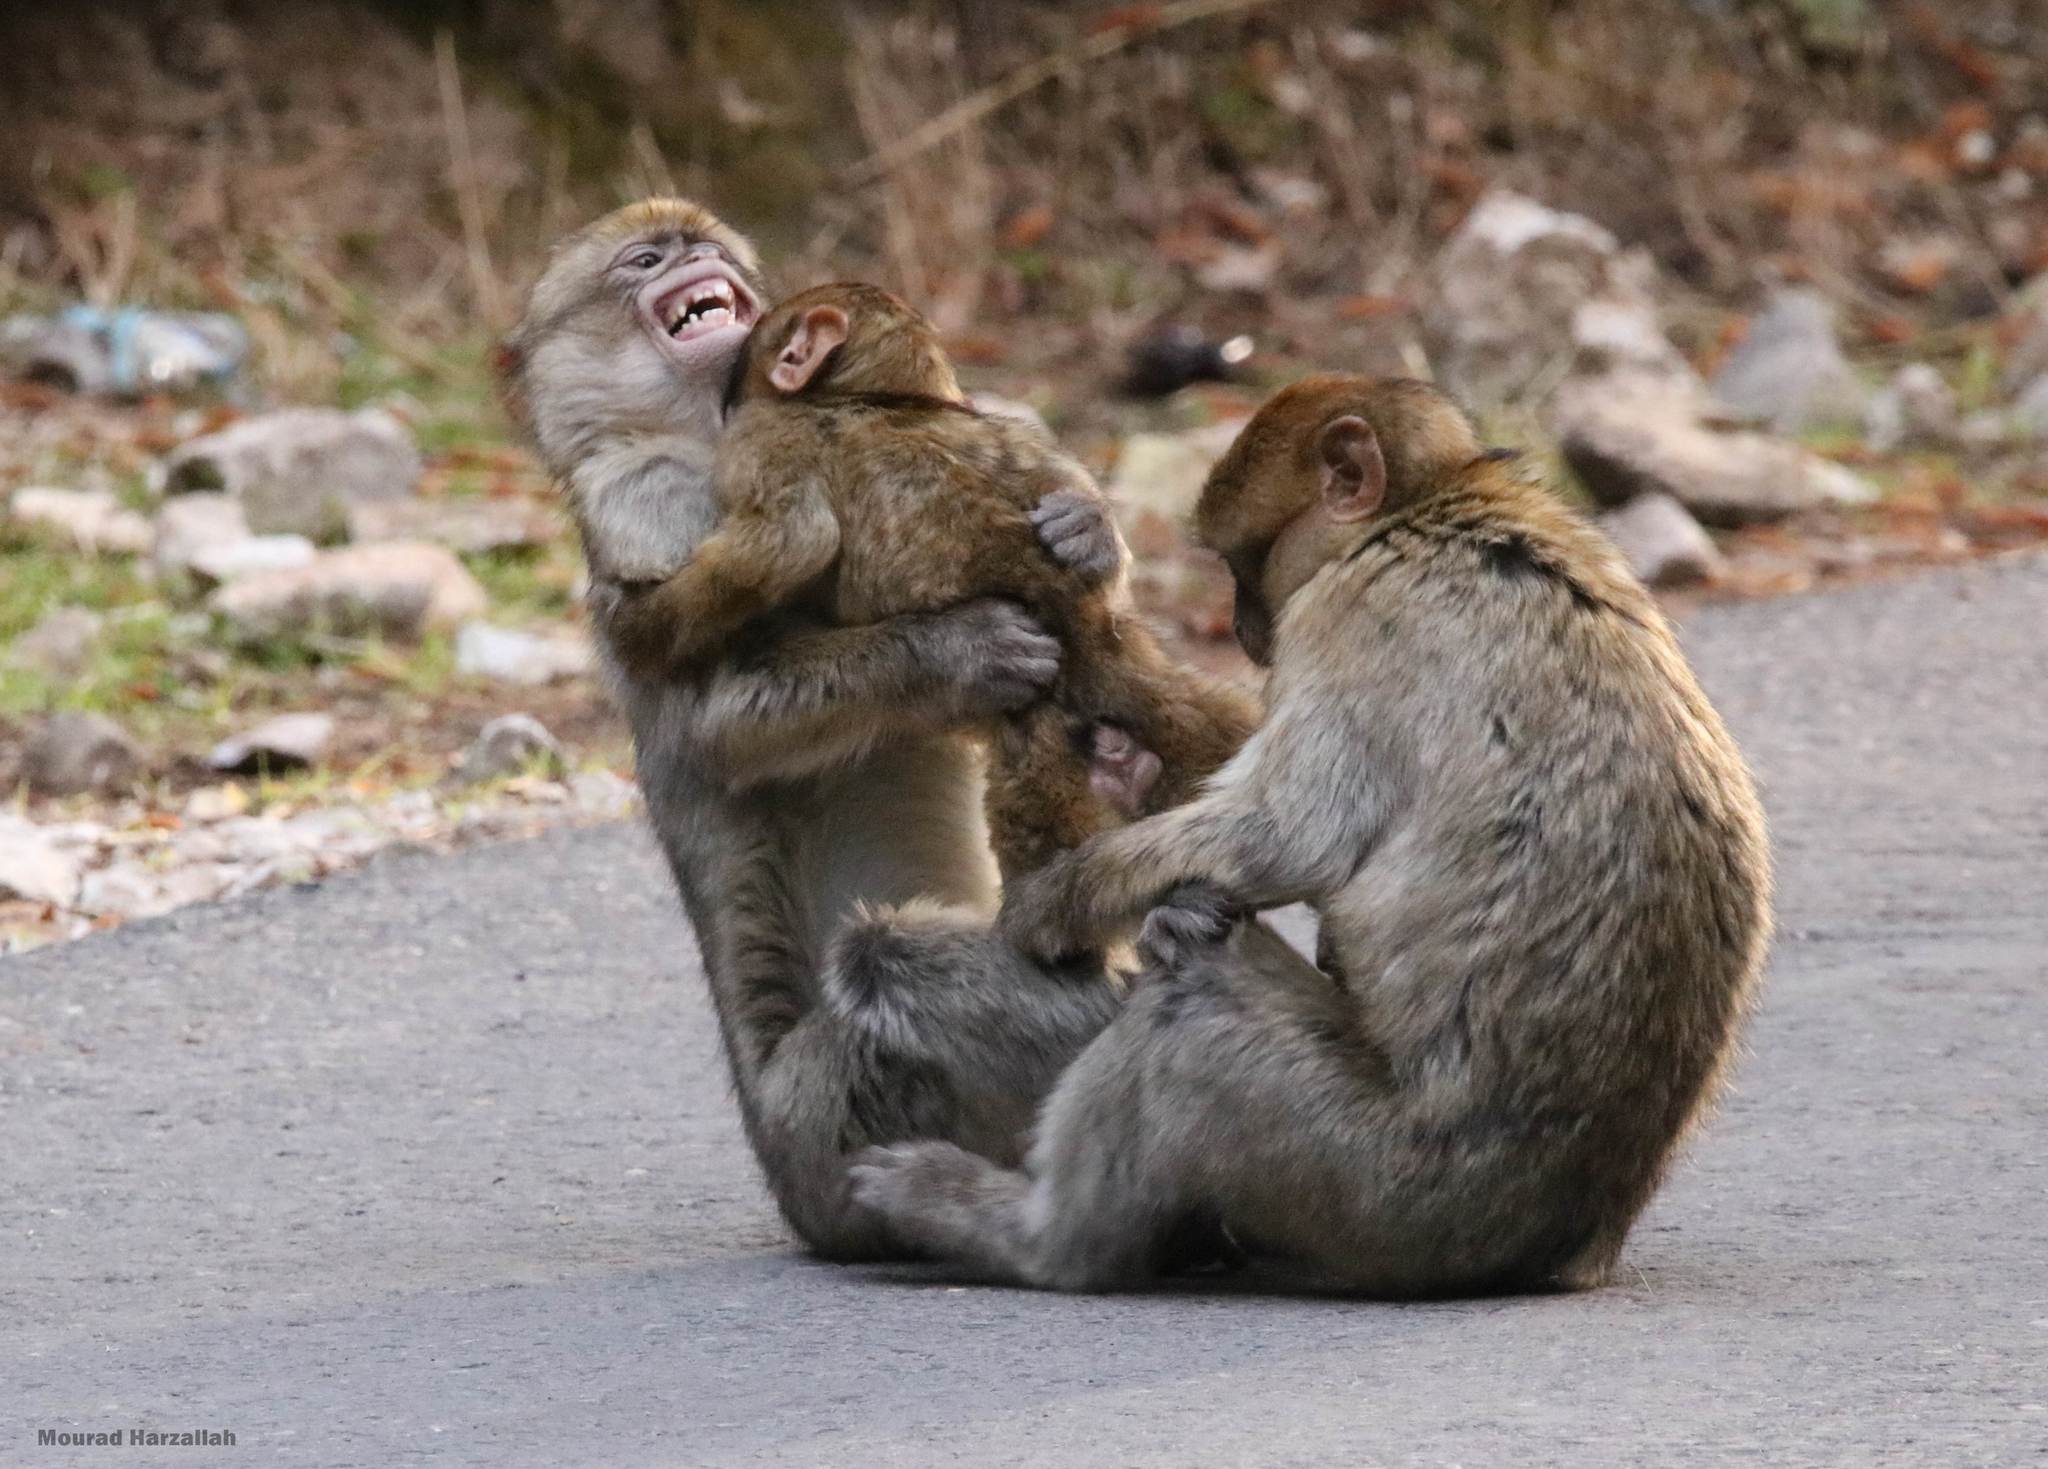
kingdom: Animalia
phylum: Chordata
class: Mammalia
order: Primates
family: Cercopithecidae
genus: Macaca
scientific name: Macaca sylvanus
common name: Barbary macaque
